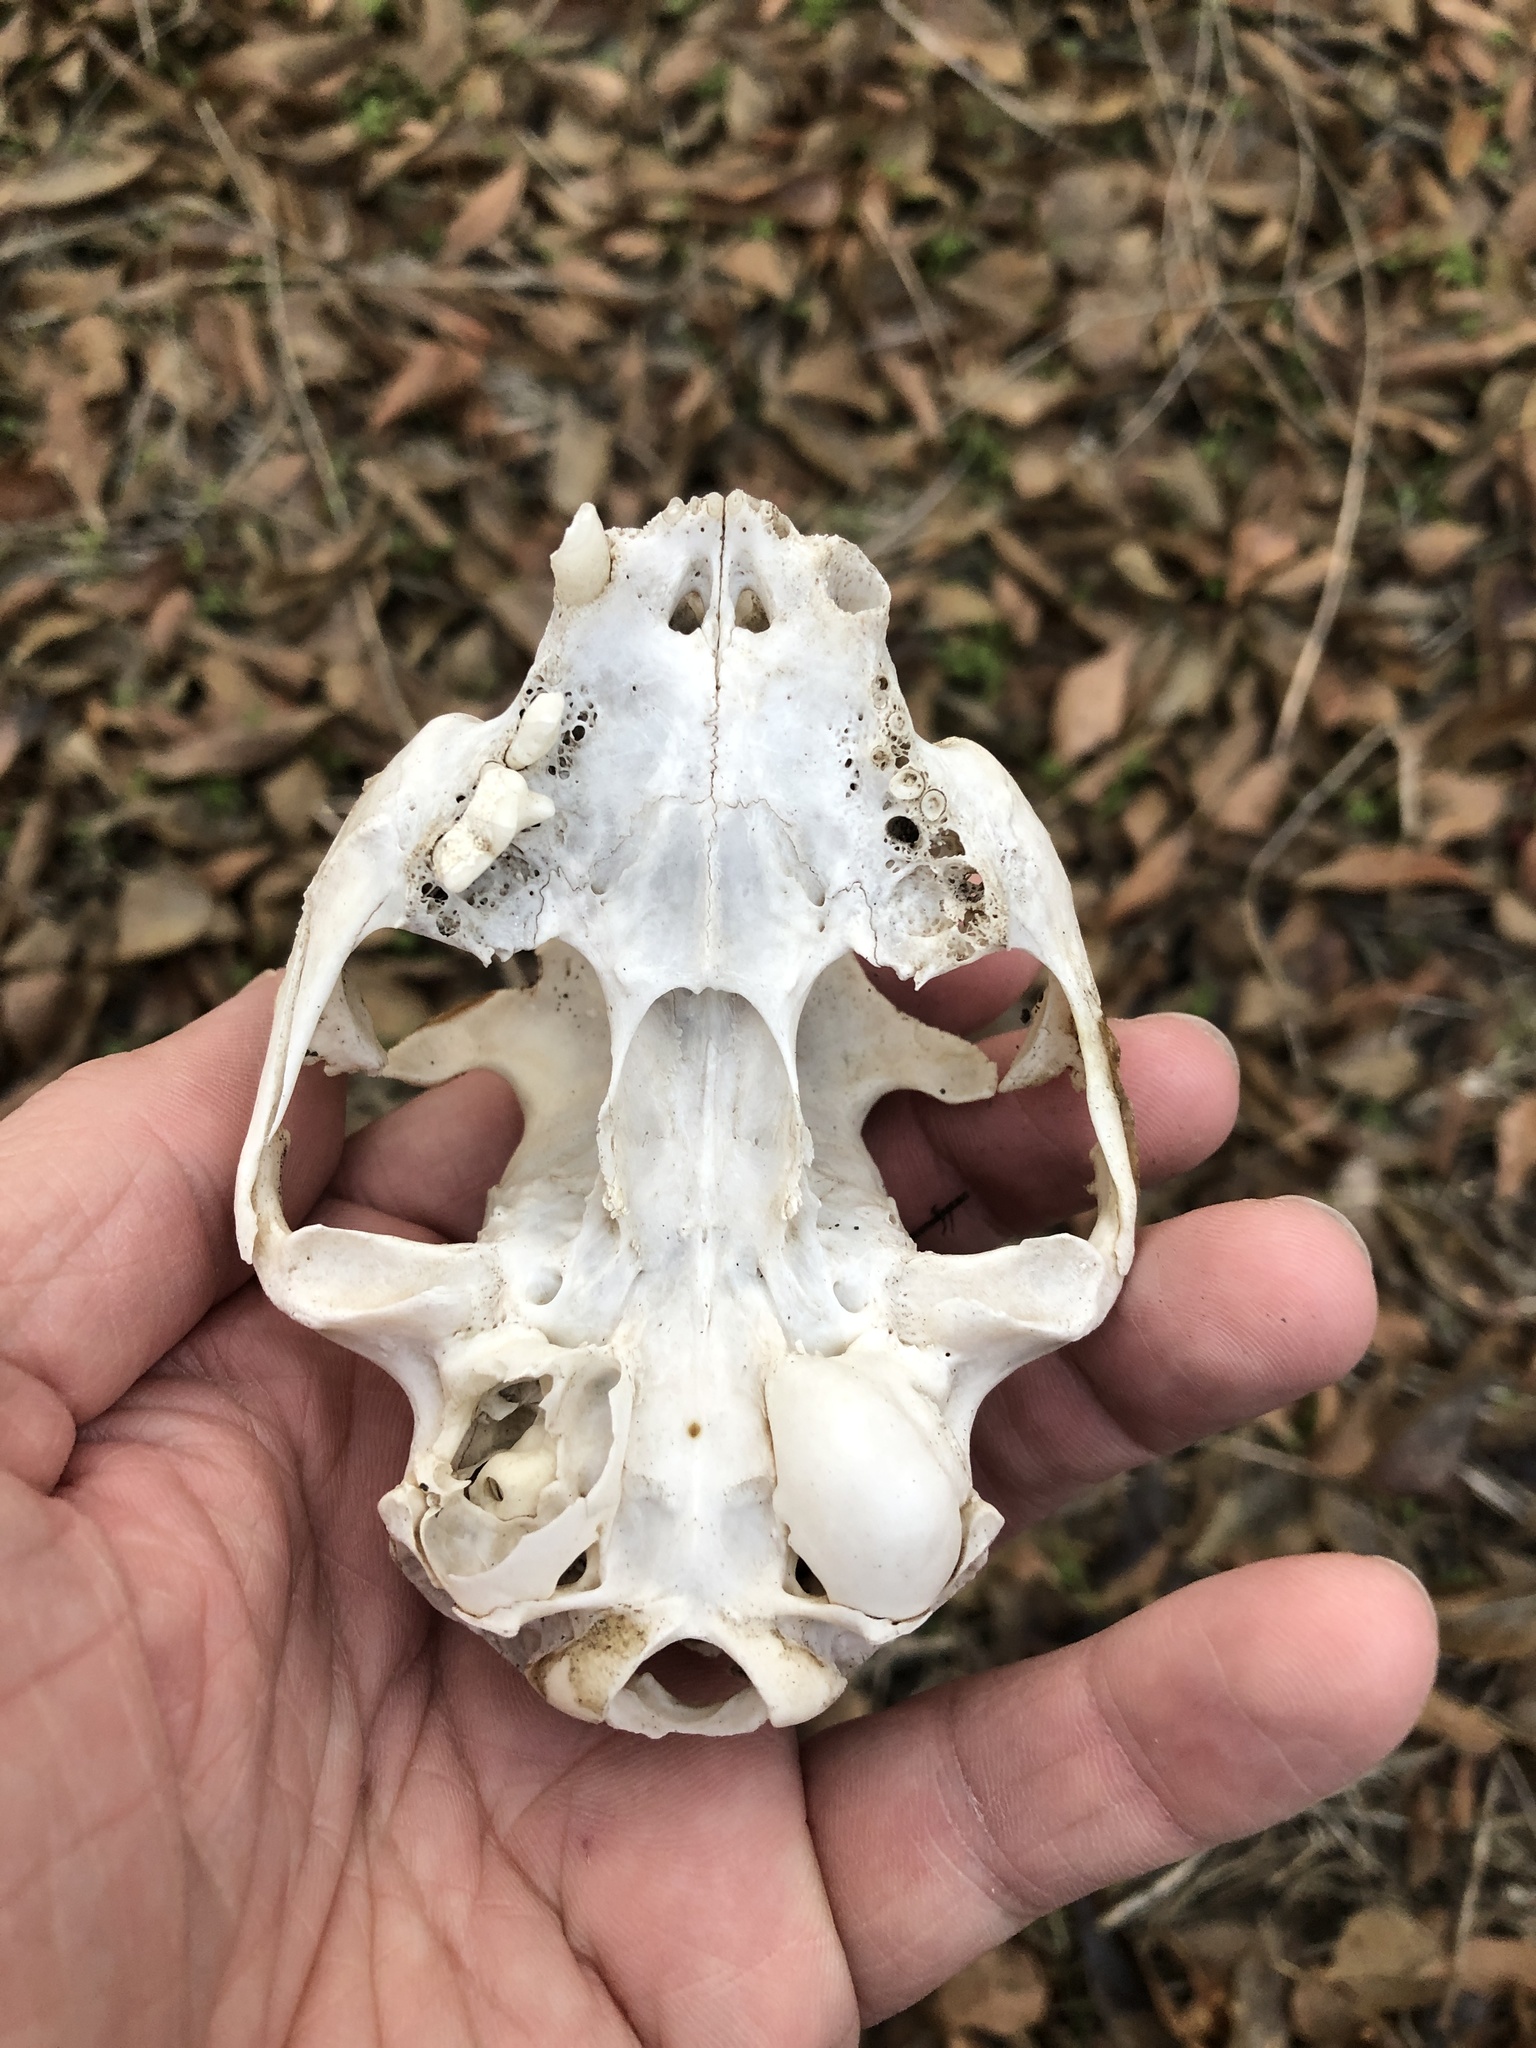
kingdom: Animalia
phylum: Chordata
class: Mammalia
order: Carnivora
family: Felidae
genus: Felis
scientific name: Felis catus
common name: Domestic cat
